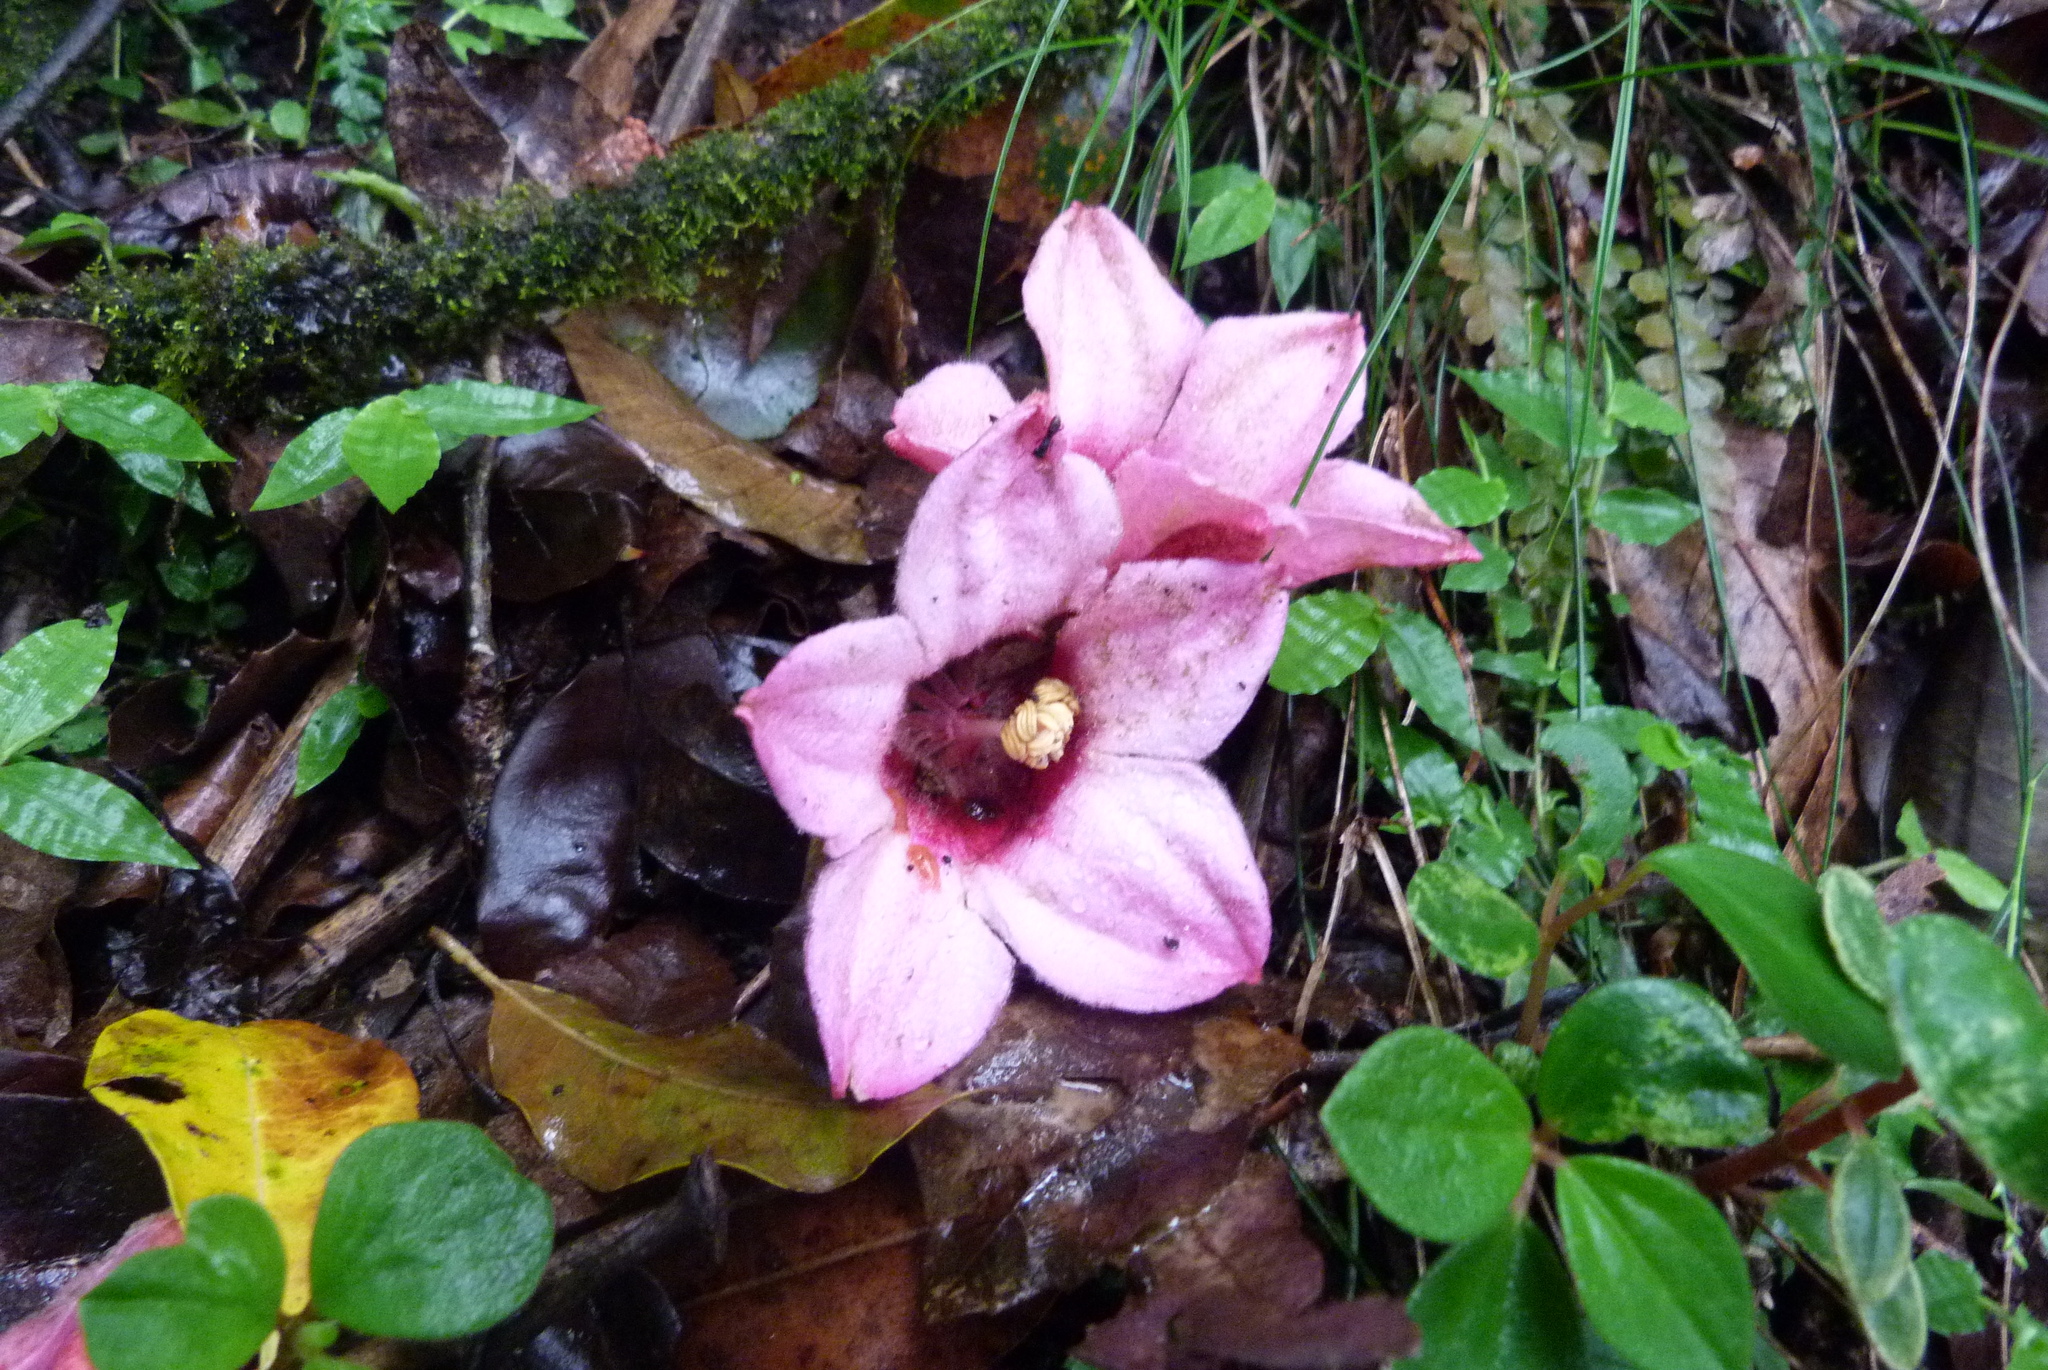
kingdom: Plantae
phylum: Tracheophyta
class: Magnoliopsida
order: Malvales
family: Malvaceae
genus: Brachychiton
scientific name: Brachychiton discolor
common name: Queensland lacebark
